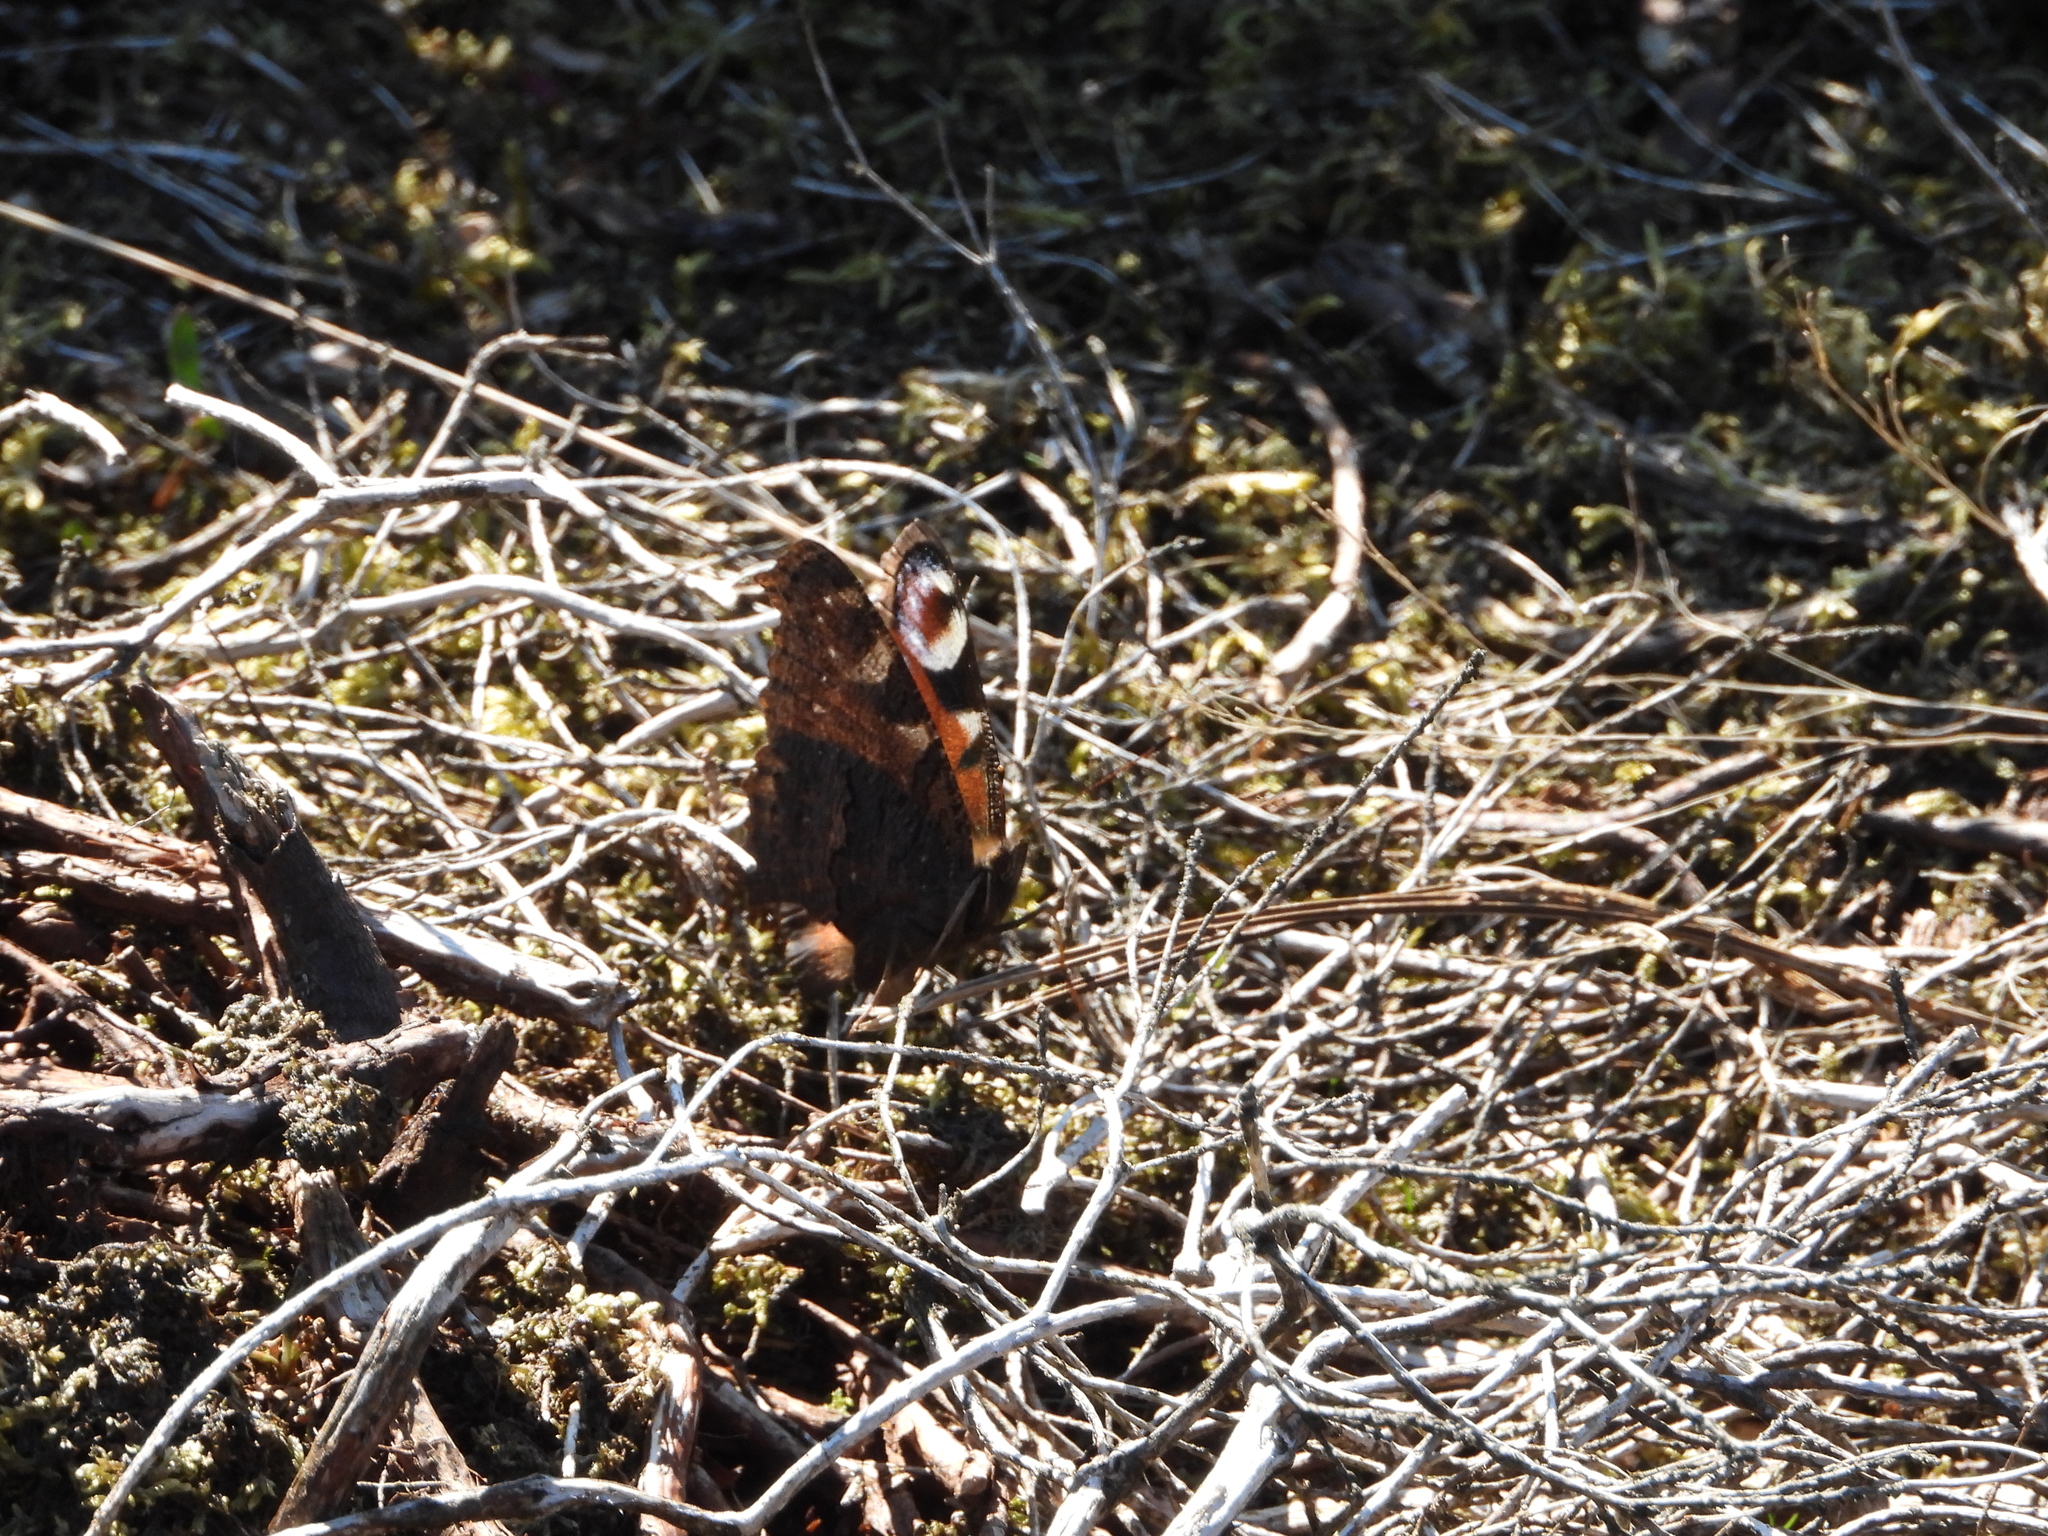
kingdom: Animalia
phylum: Arthropoda
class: Insecta
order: Lepidoptera
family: Nymphalidae
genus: Aglais
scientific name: Aglais io
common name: Peacock
